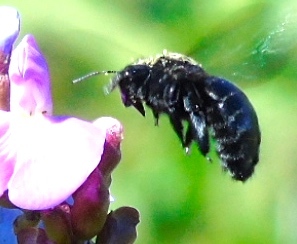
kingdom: Animalia
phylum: Arthropoda
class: Insecta
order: Hymenoptera
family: Apidae
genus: Xylocopa
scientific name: Xylocopa
